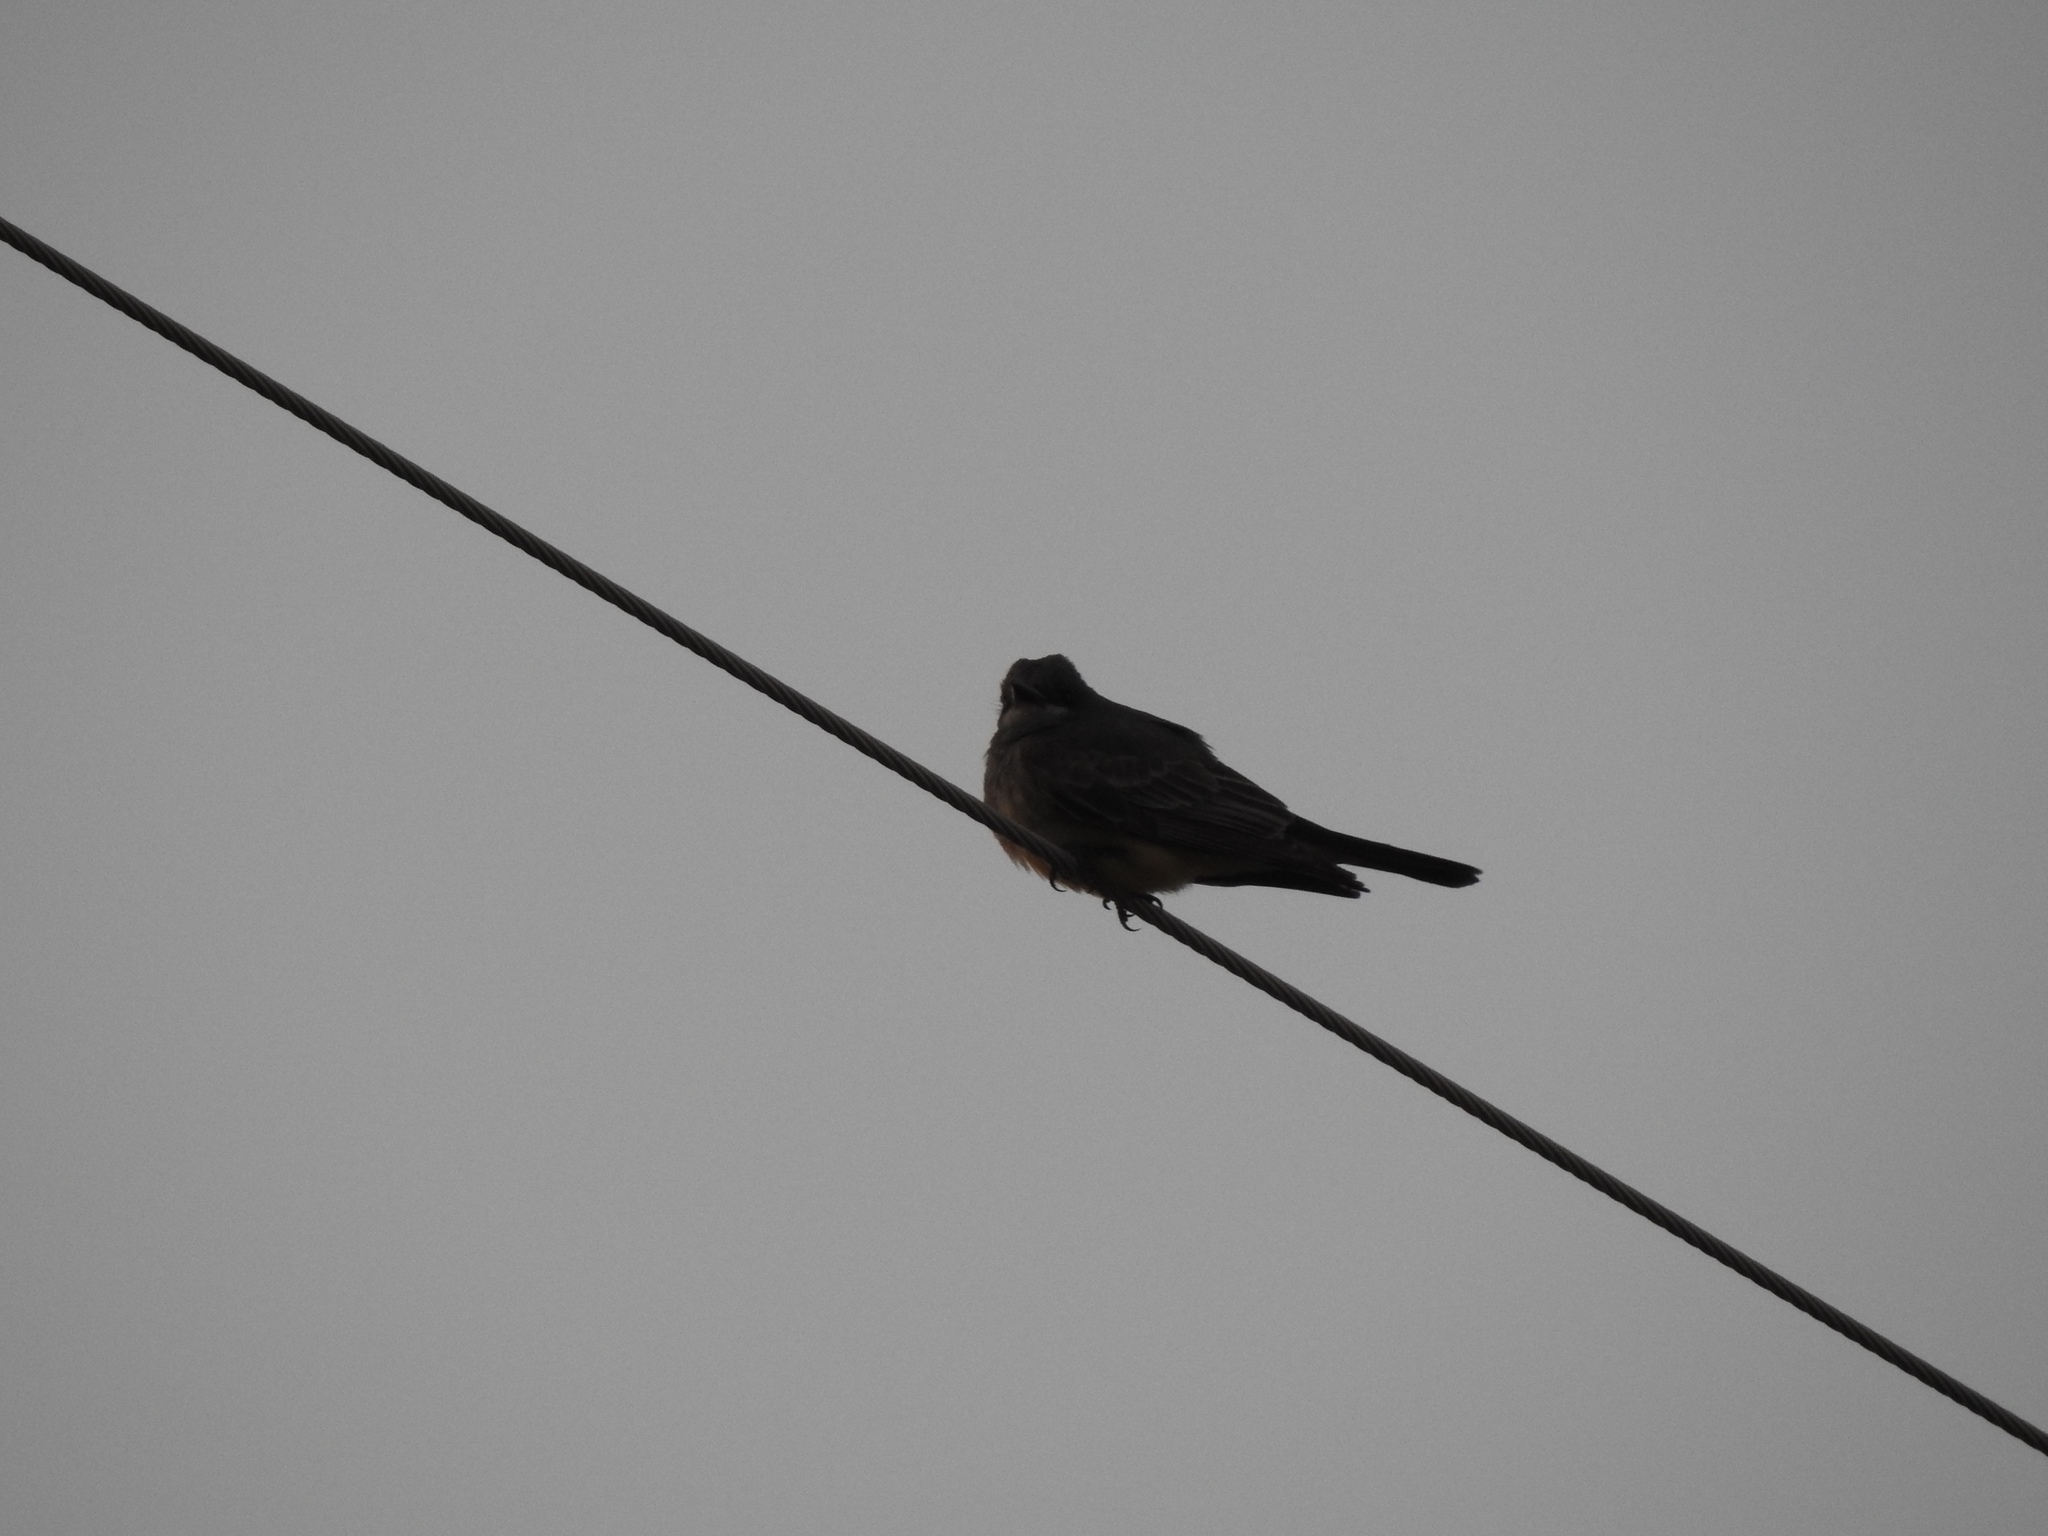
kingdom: Animalia
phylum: Chordata
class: Aves
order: Passeriformes
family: Tyrannidae
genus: Tyrannus
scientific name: Tyrannus vociferans
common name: Cassin's kingbird
